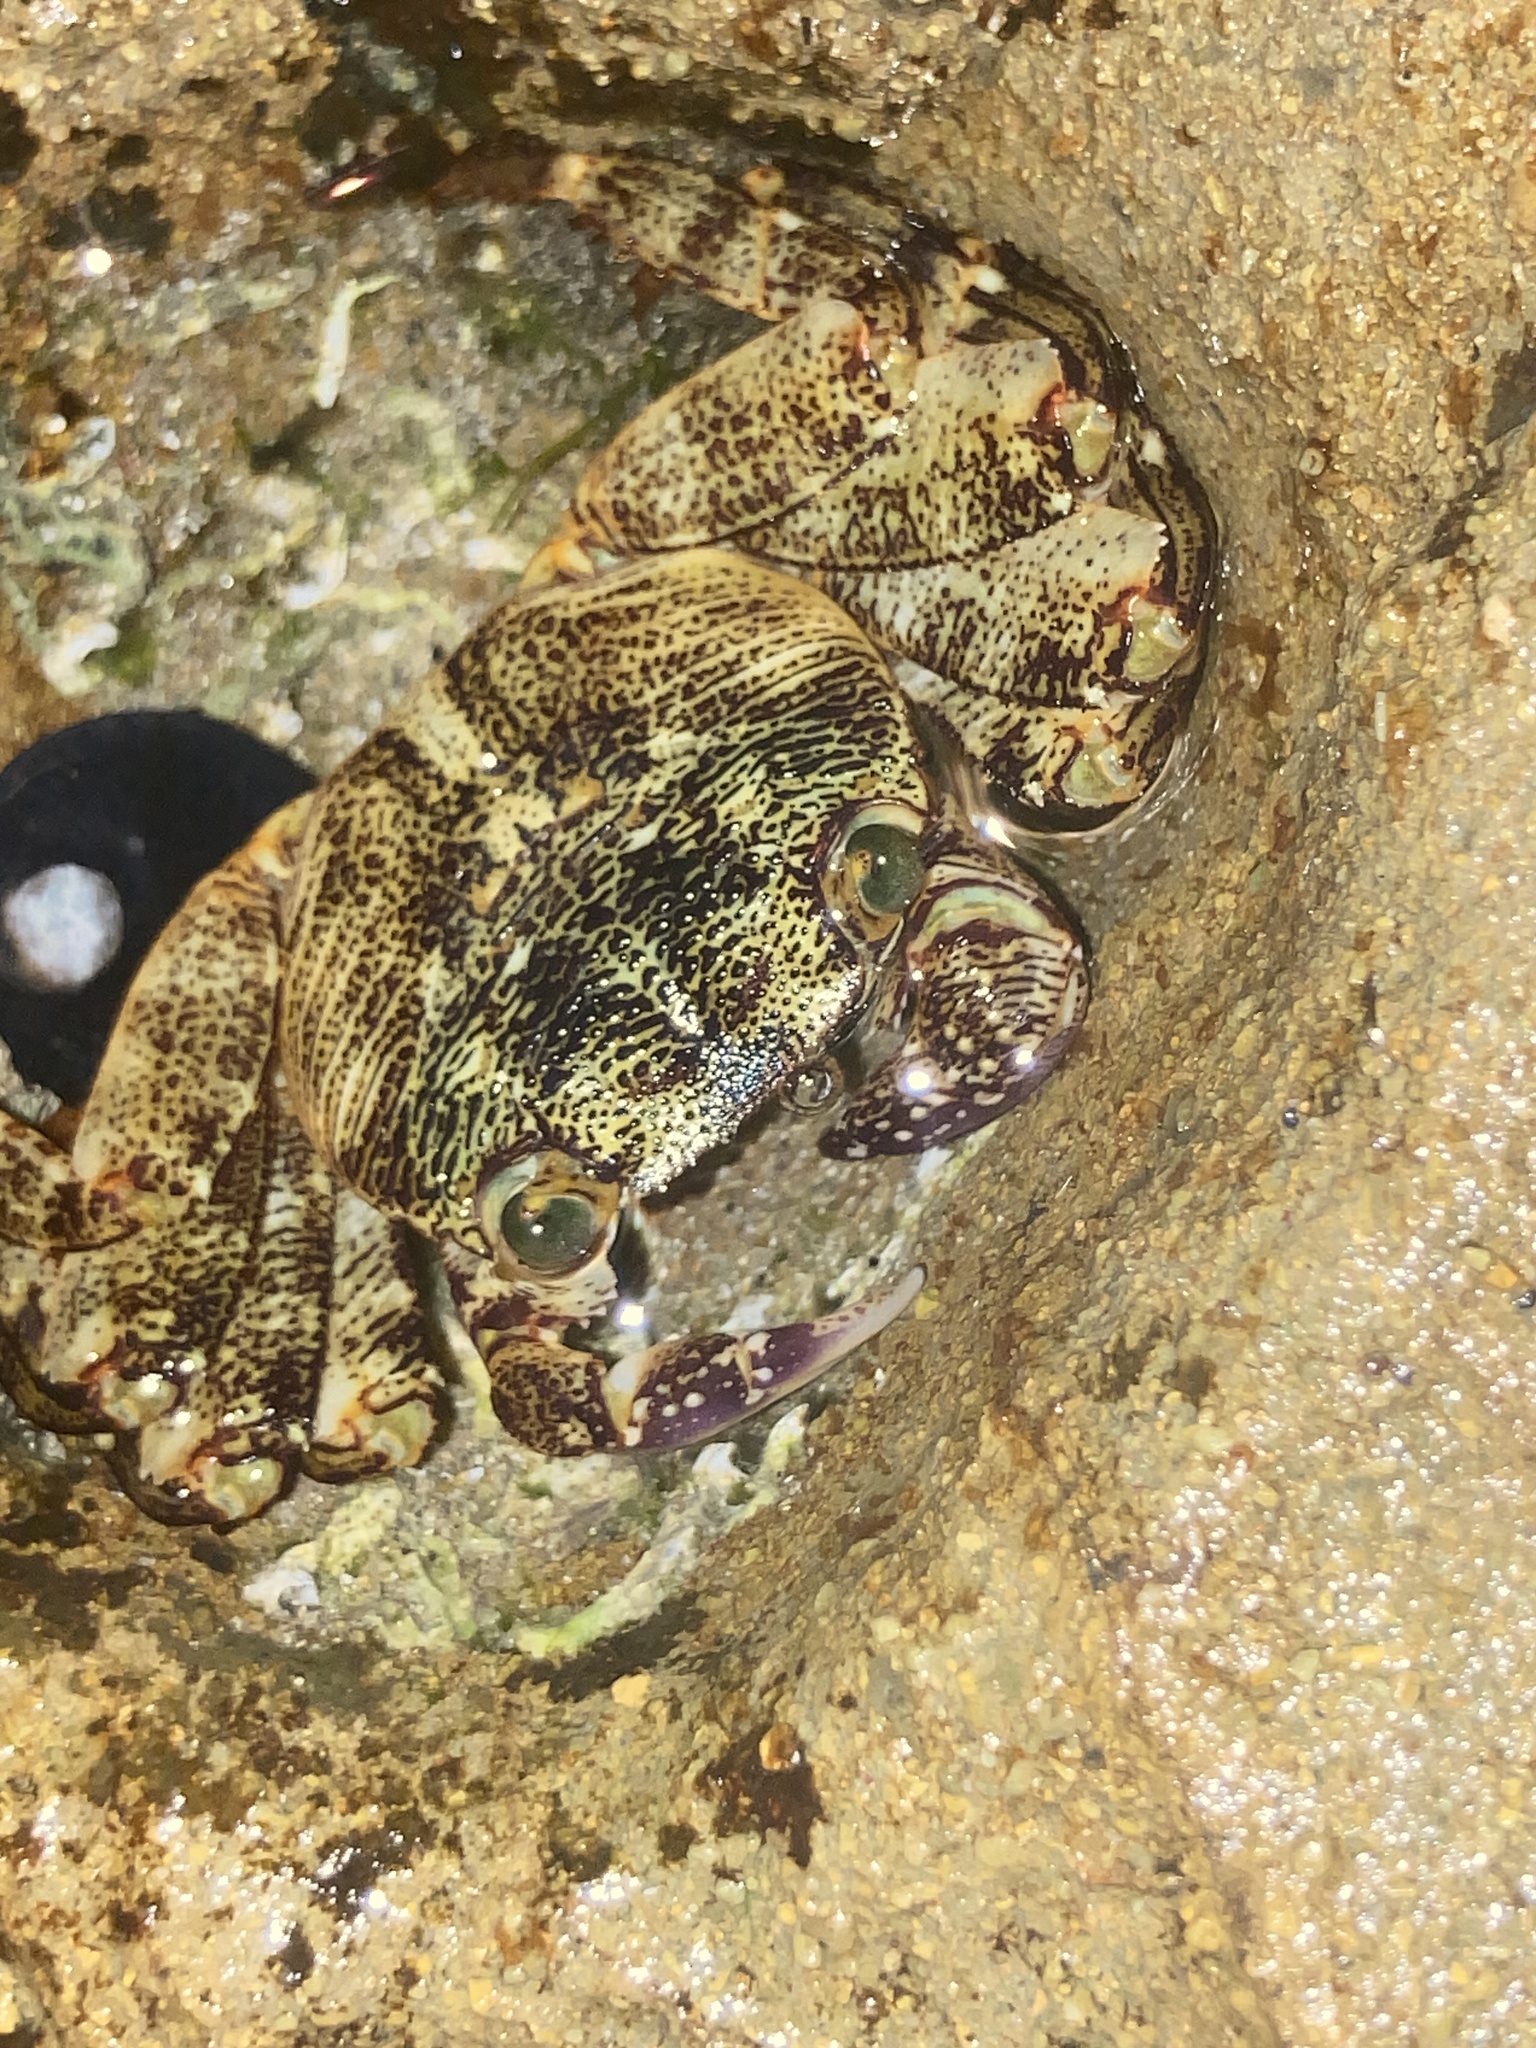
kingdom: Animalia
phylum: Arthropoda
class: Malacostraca
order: Decapoda
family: Grapsidae
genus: Leptograpsus
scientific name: Leptograpsus variegatus
